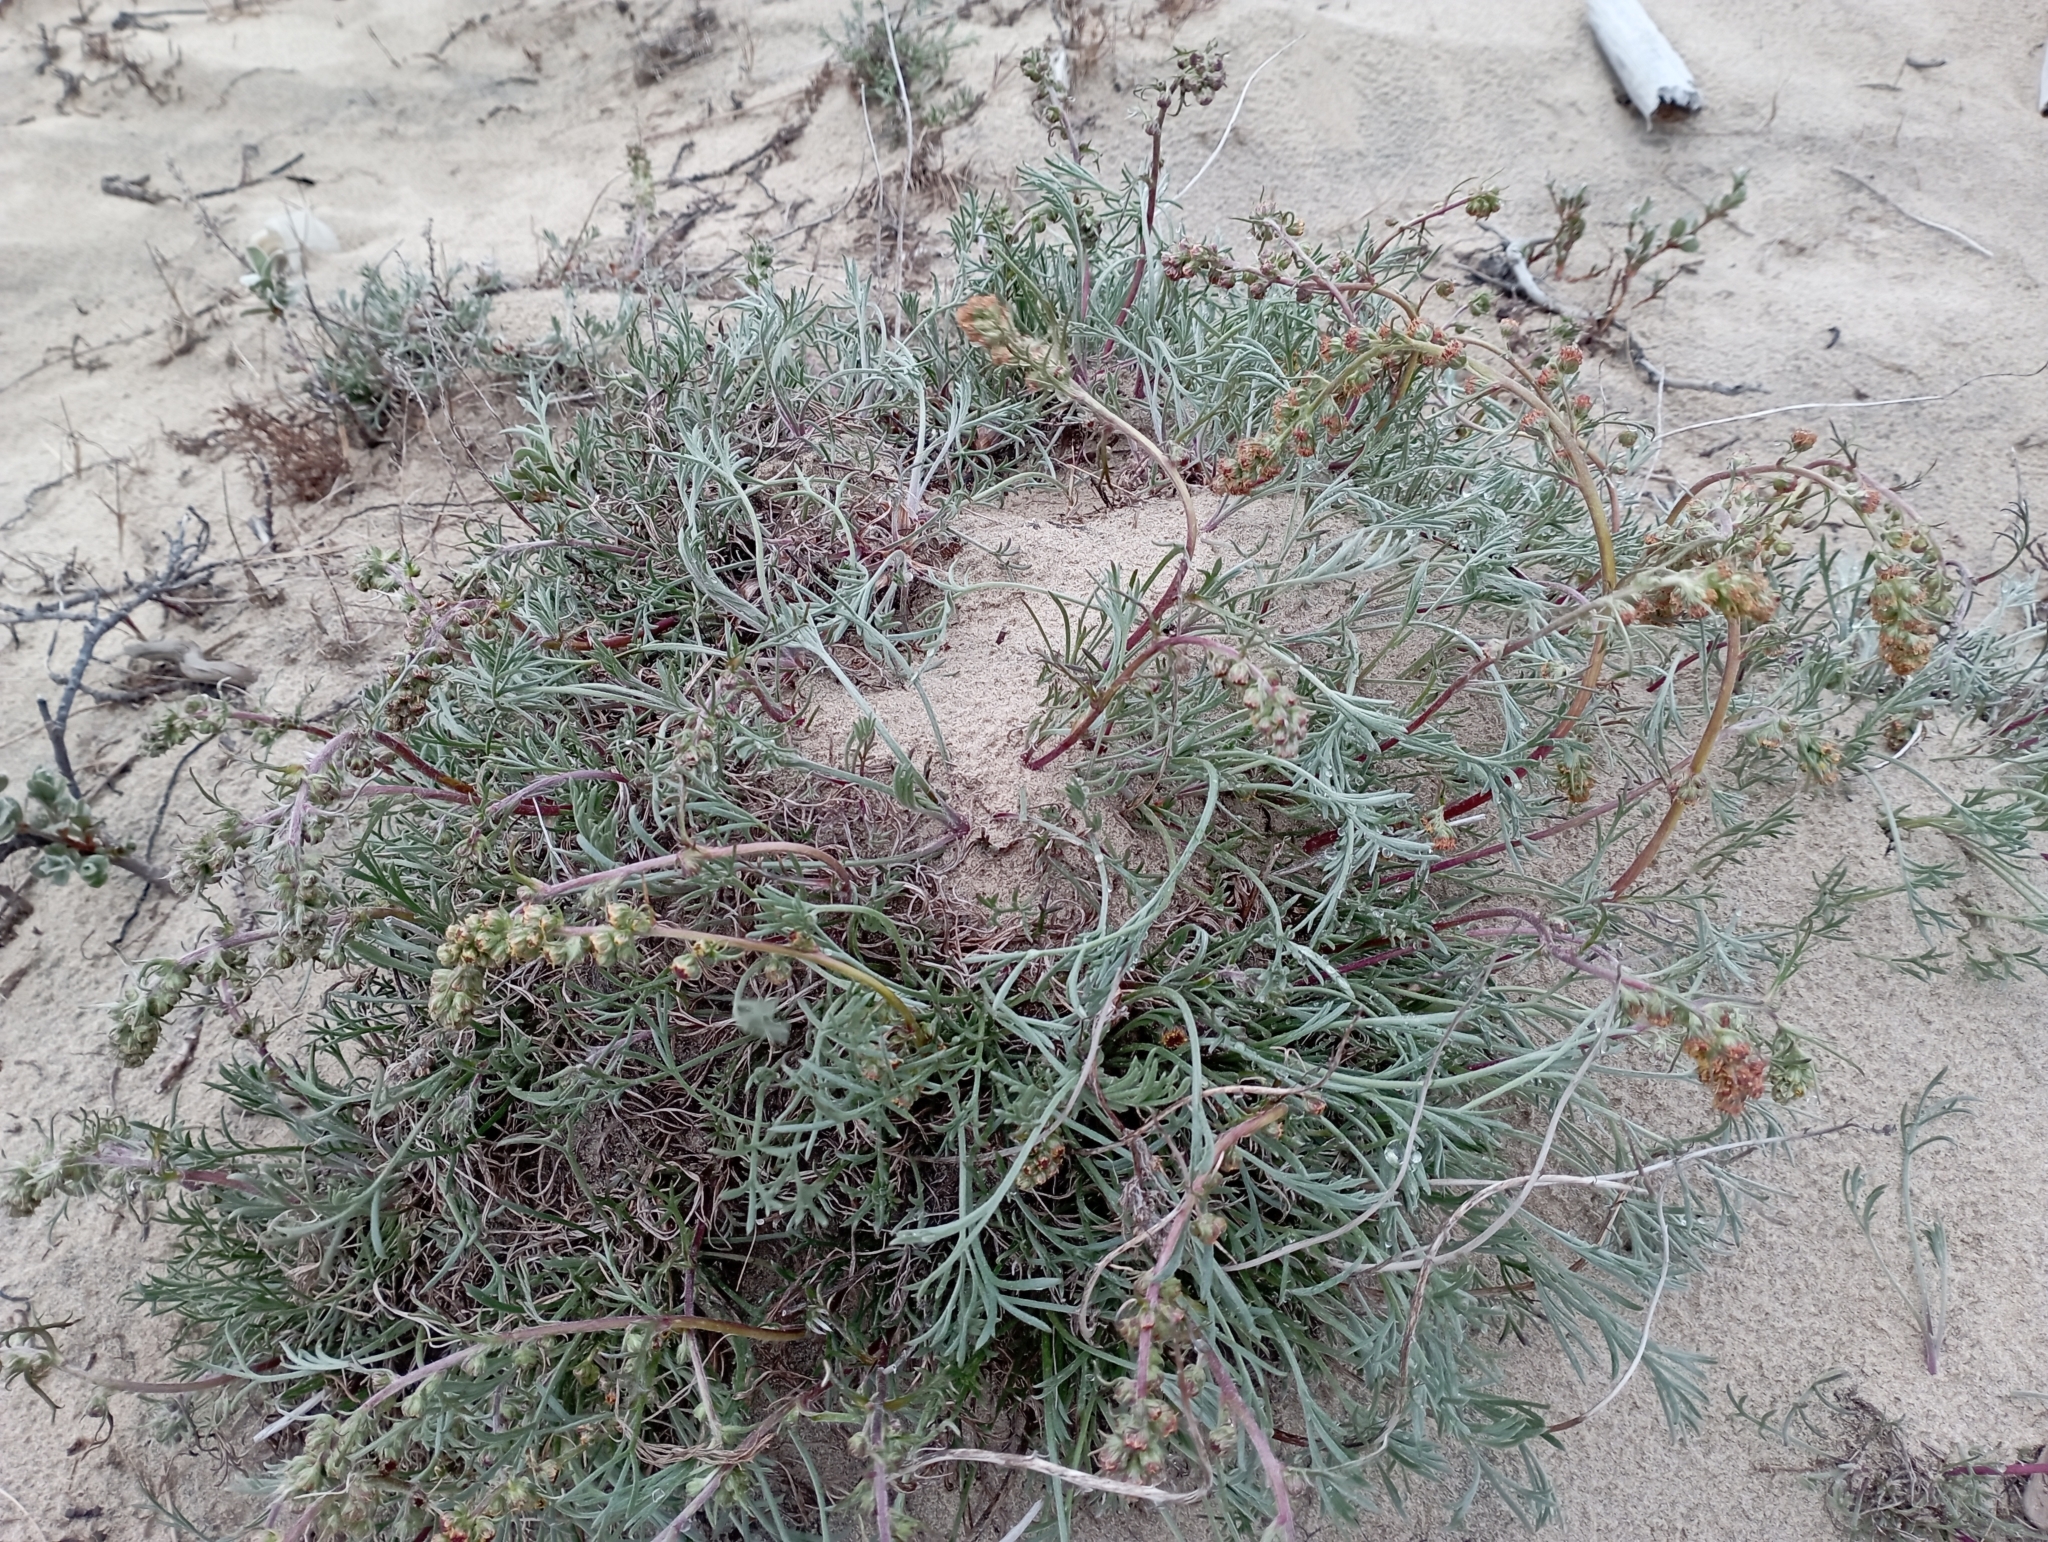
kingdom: Plantae
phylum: Tracheophyta
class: Magnoliopsida
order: Asterales
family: Asteraceae
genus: Artemisia
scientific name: Artemisia borealis
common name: Boreal sage
